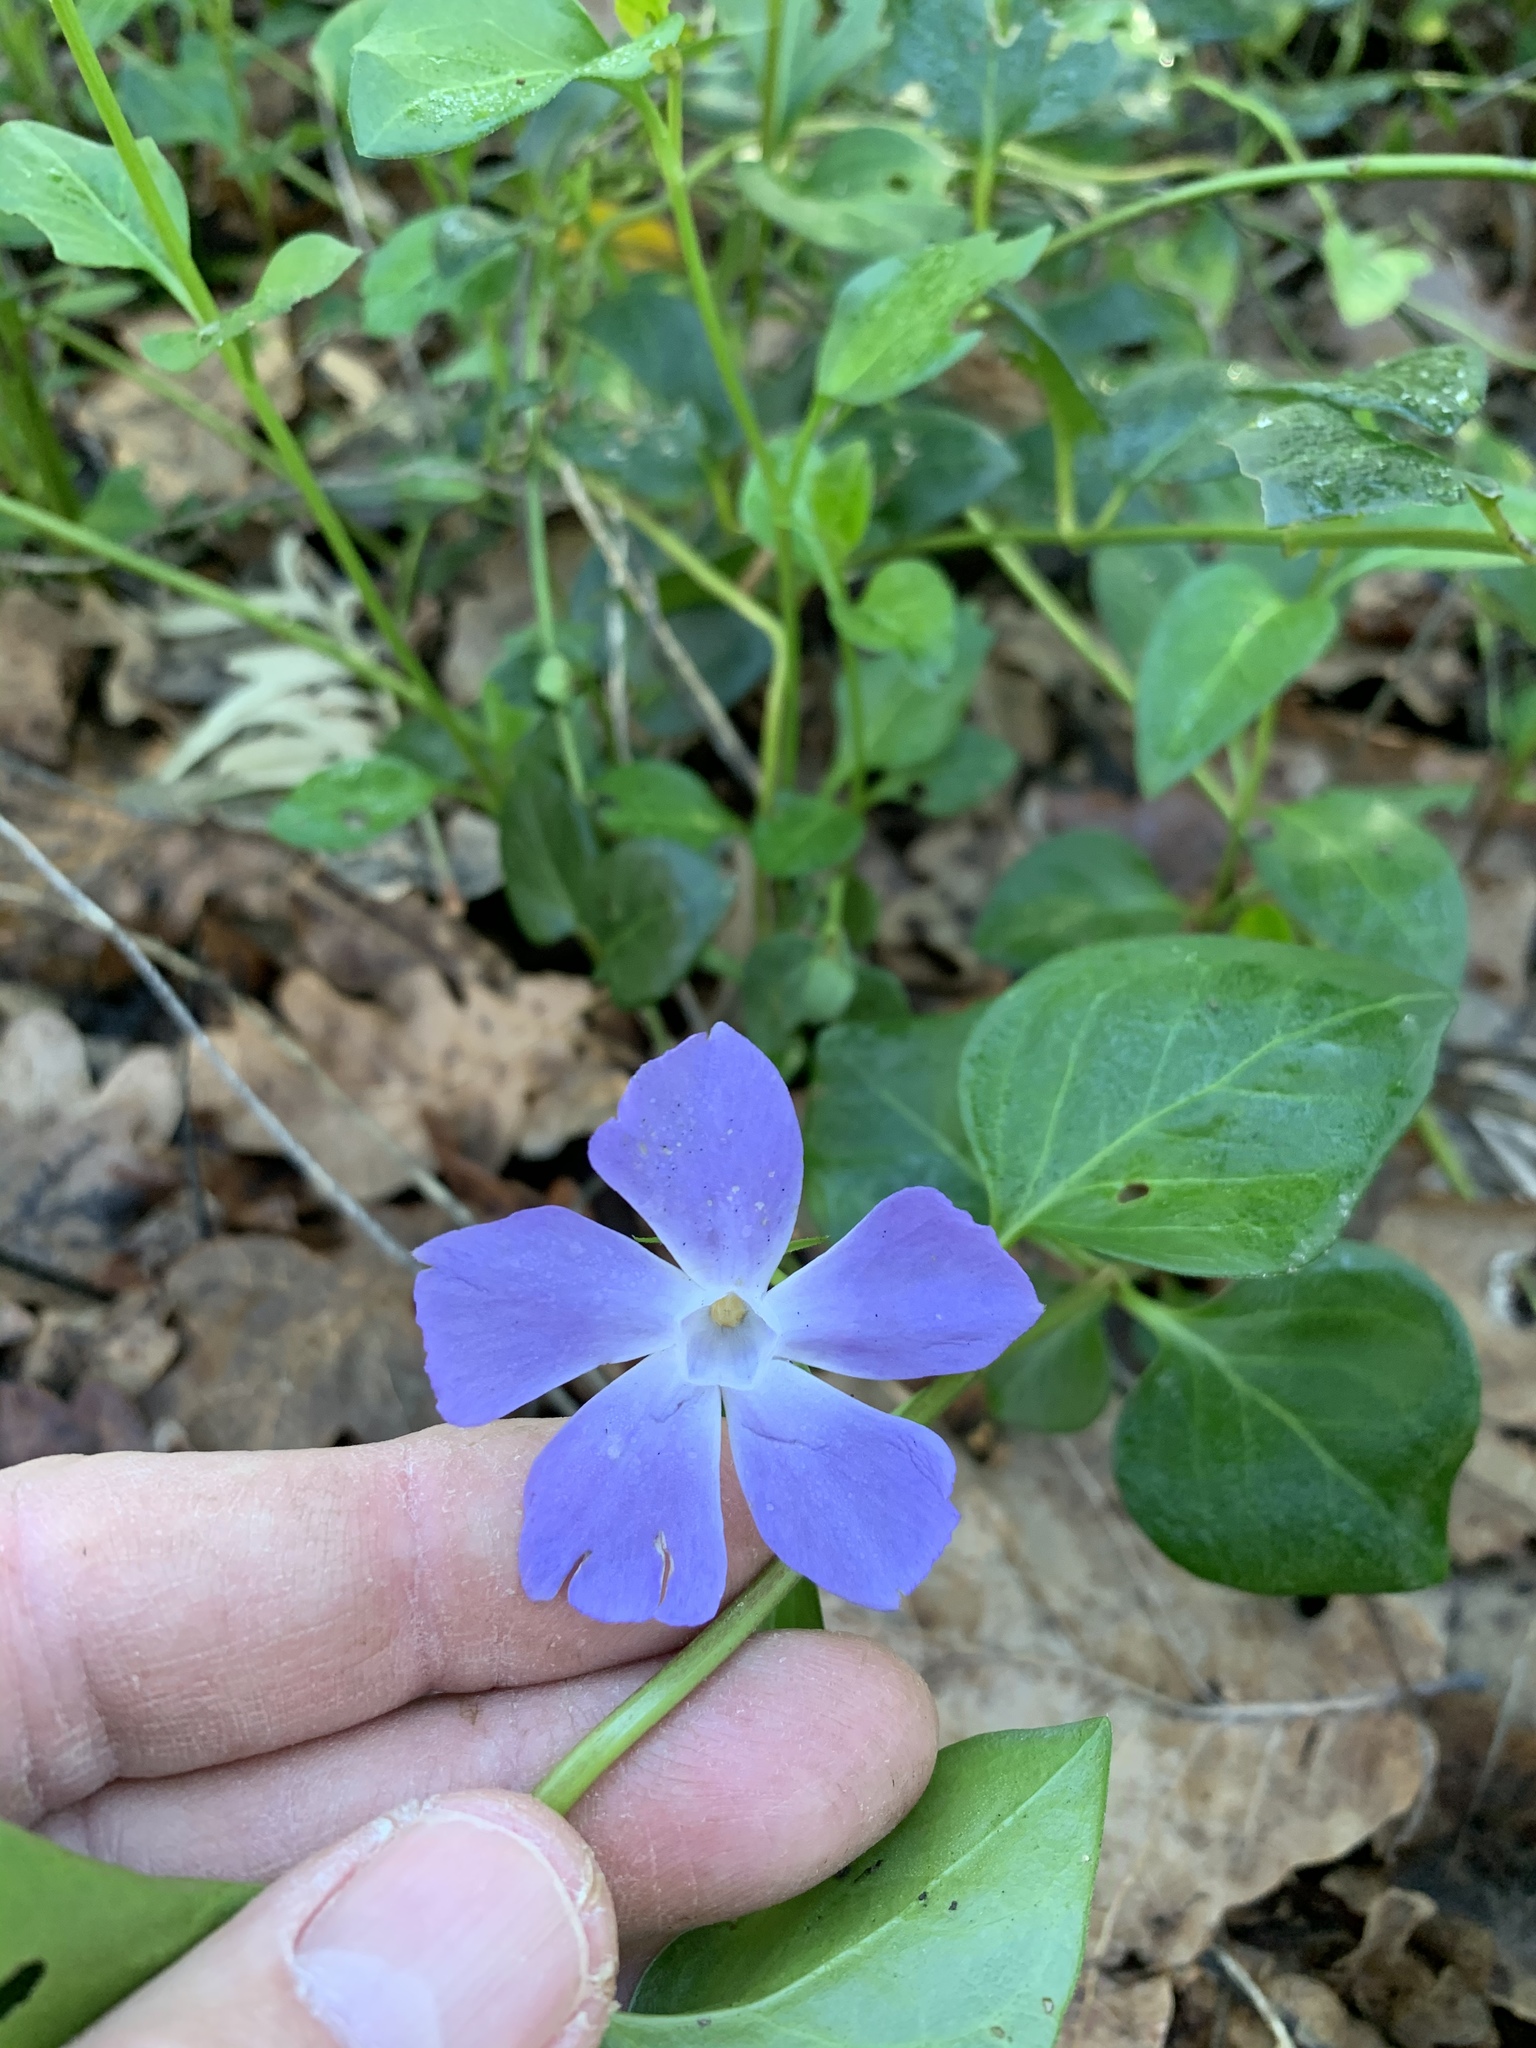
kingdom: Plantae
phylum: Tracheophyta
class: Magnoliopsida
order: Gentianales
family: Apocynaceae
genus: Vinca
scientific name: Vinca major
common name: Greater periwinkle
